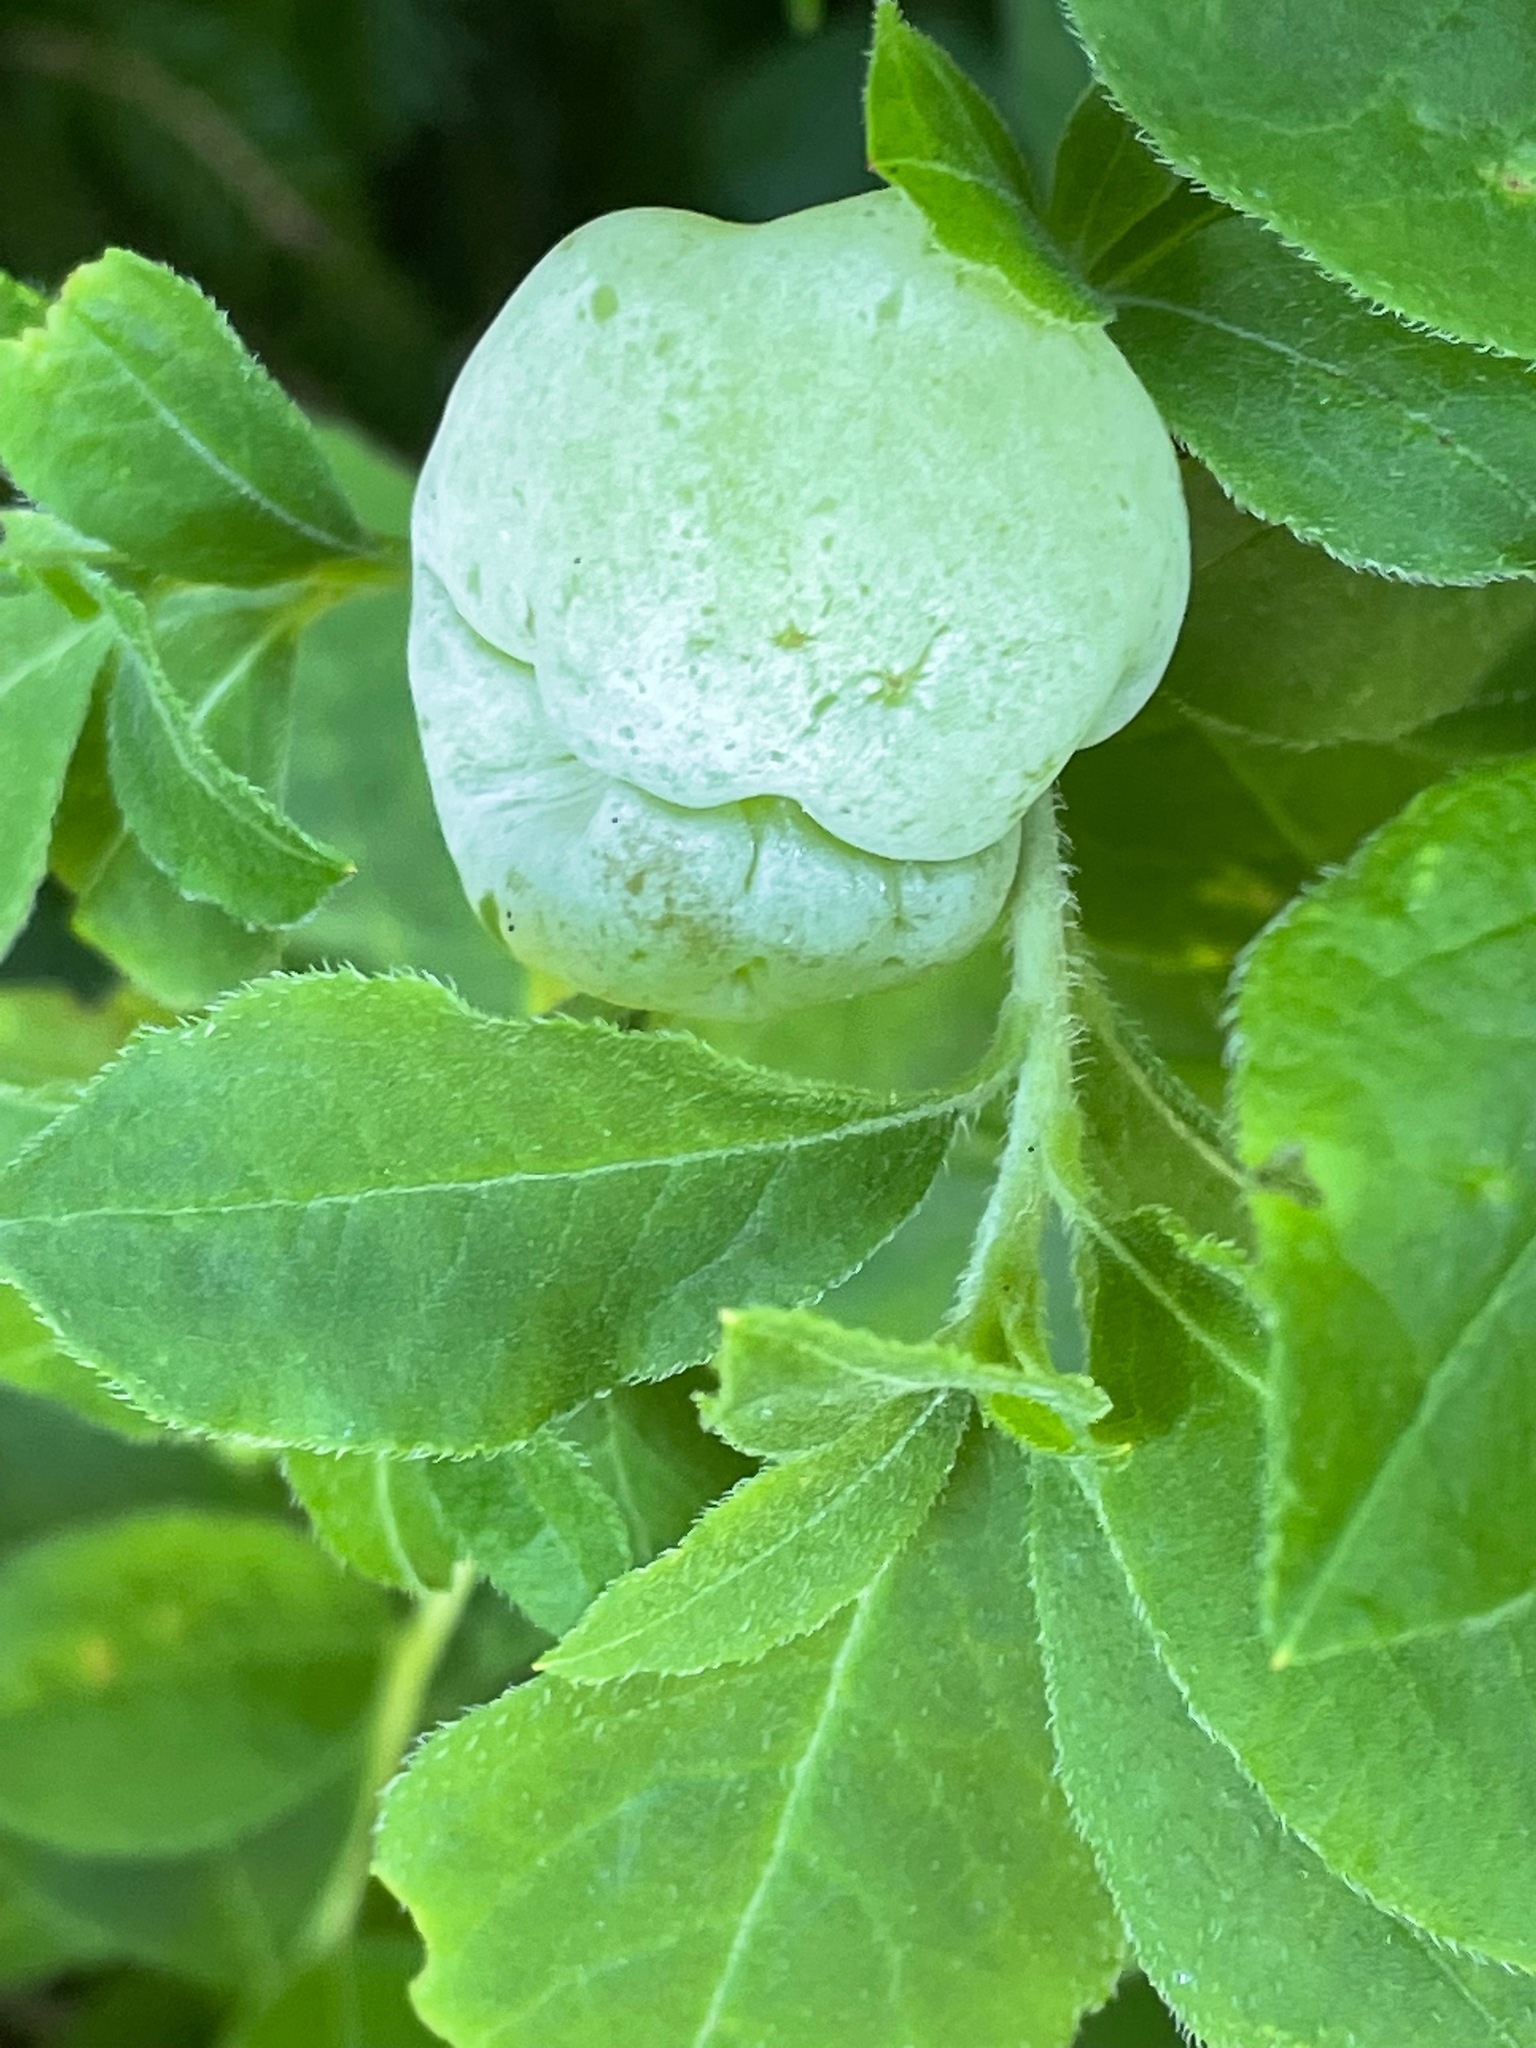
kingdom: Fungi
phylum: Basidiomycota
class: Exobasidiomycetes
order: Exobasidiales
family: Exobasidiaceae
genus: Exobasidium
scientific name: Exobasidium vaccinii
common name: Cowberry redleaf
